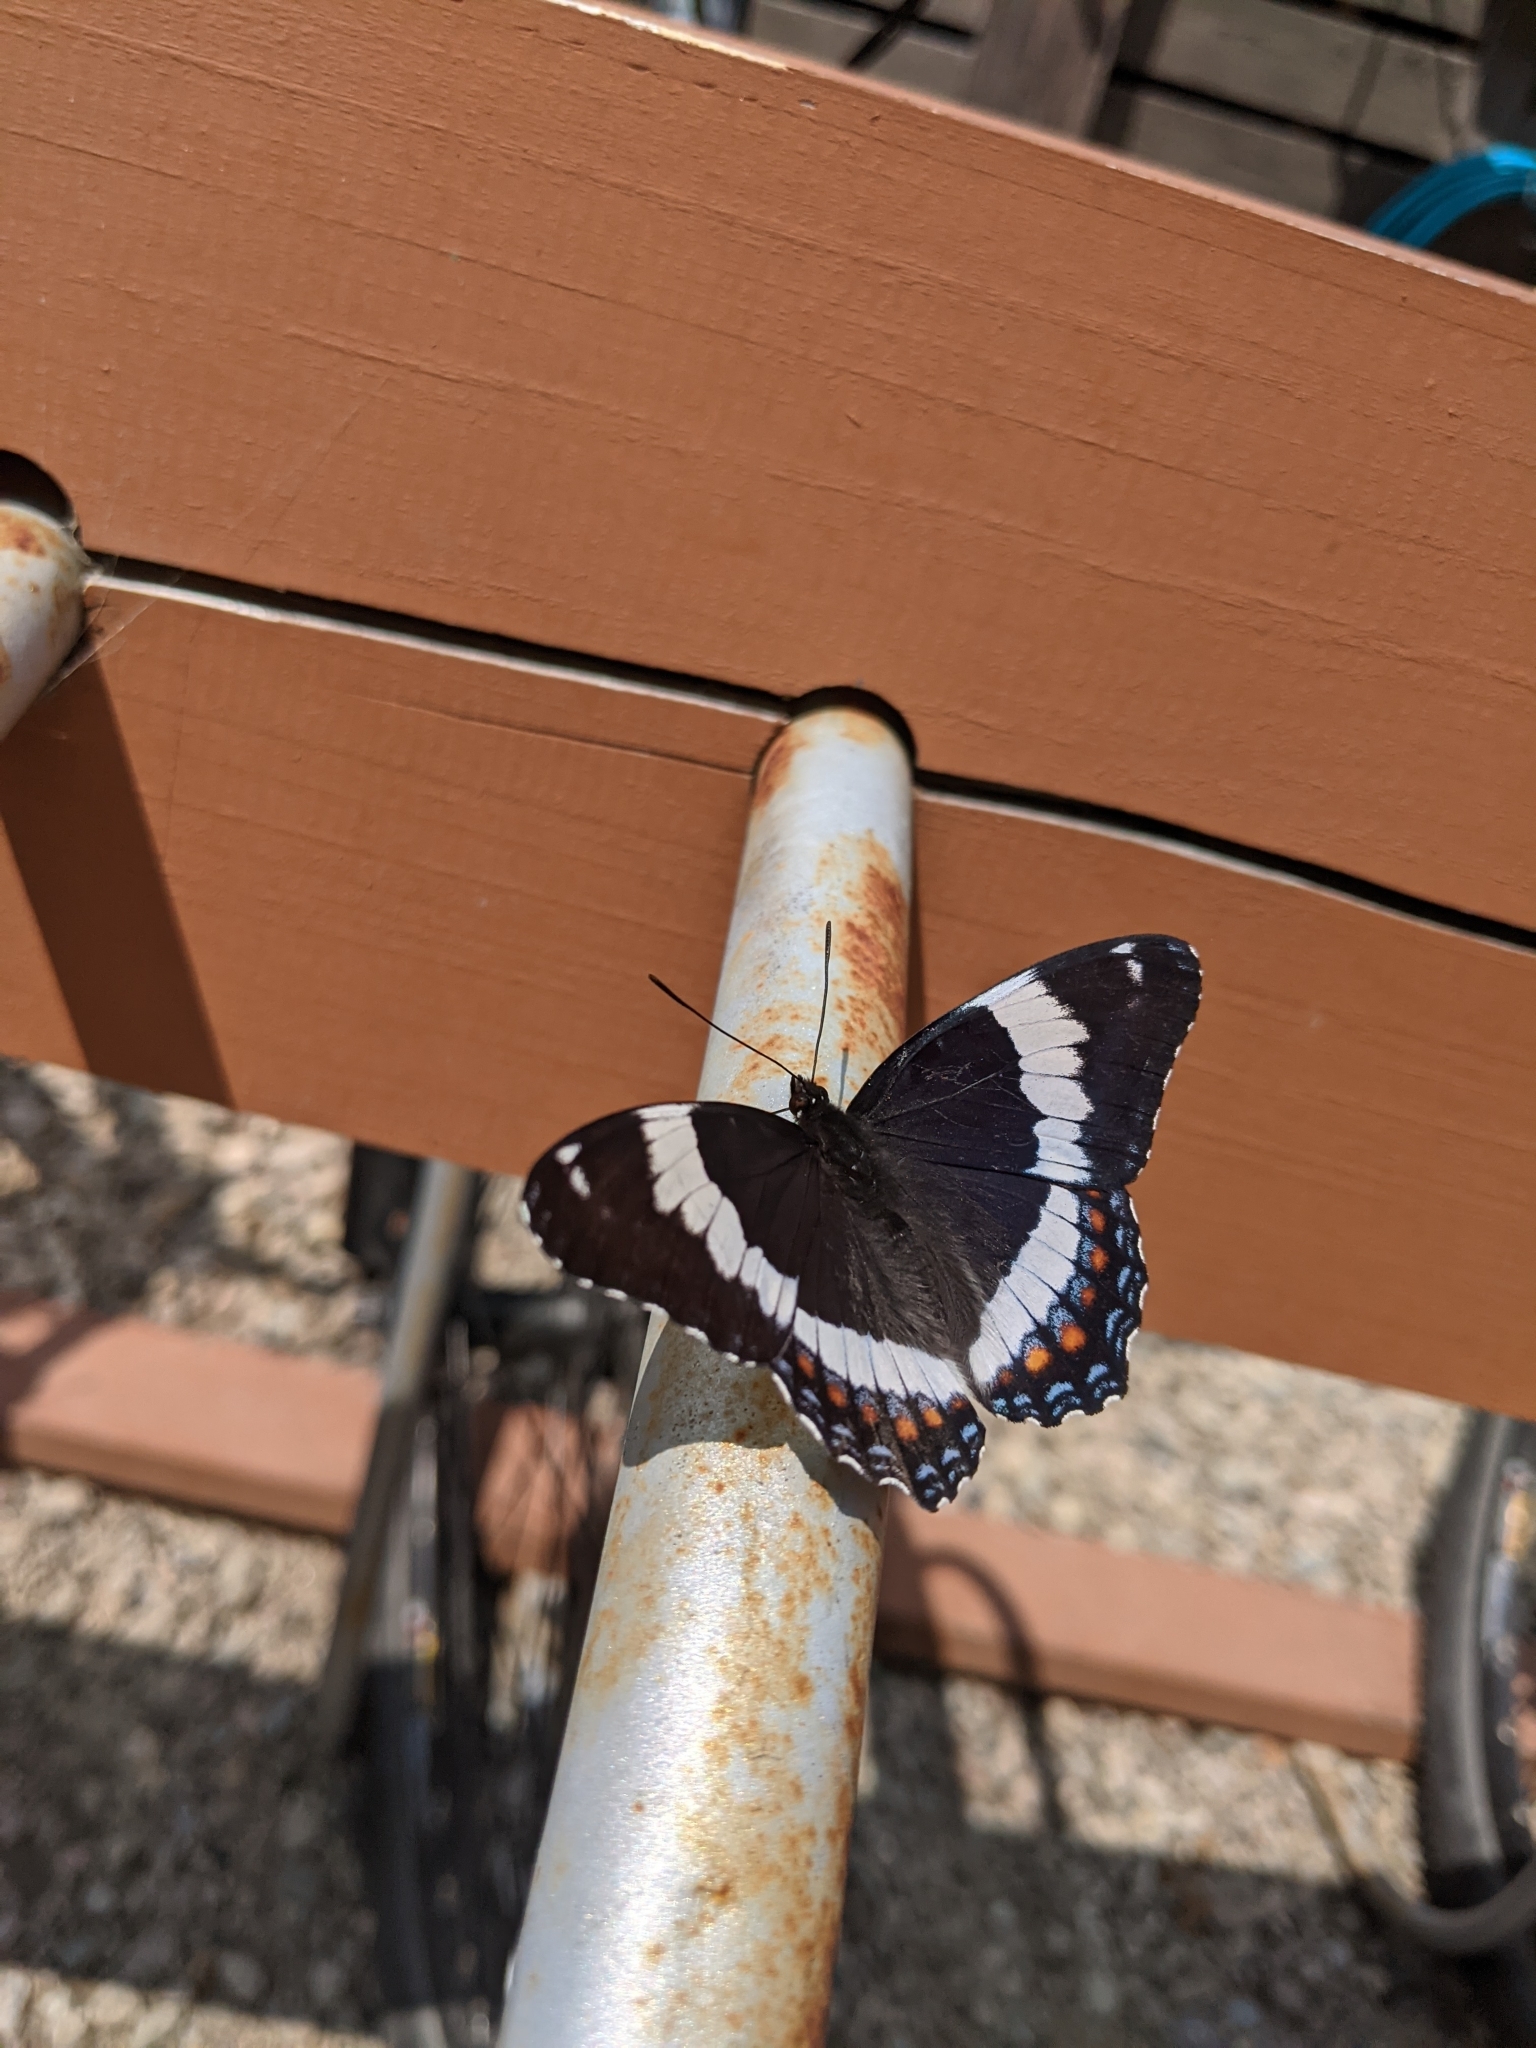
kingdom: Animalia
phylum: Arthropoda
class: Insecta
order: Lepidoptera
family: Nymphalidae
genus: Limenitis
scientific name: Limenitis arthemis
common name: Red-spotted admiral
